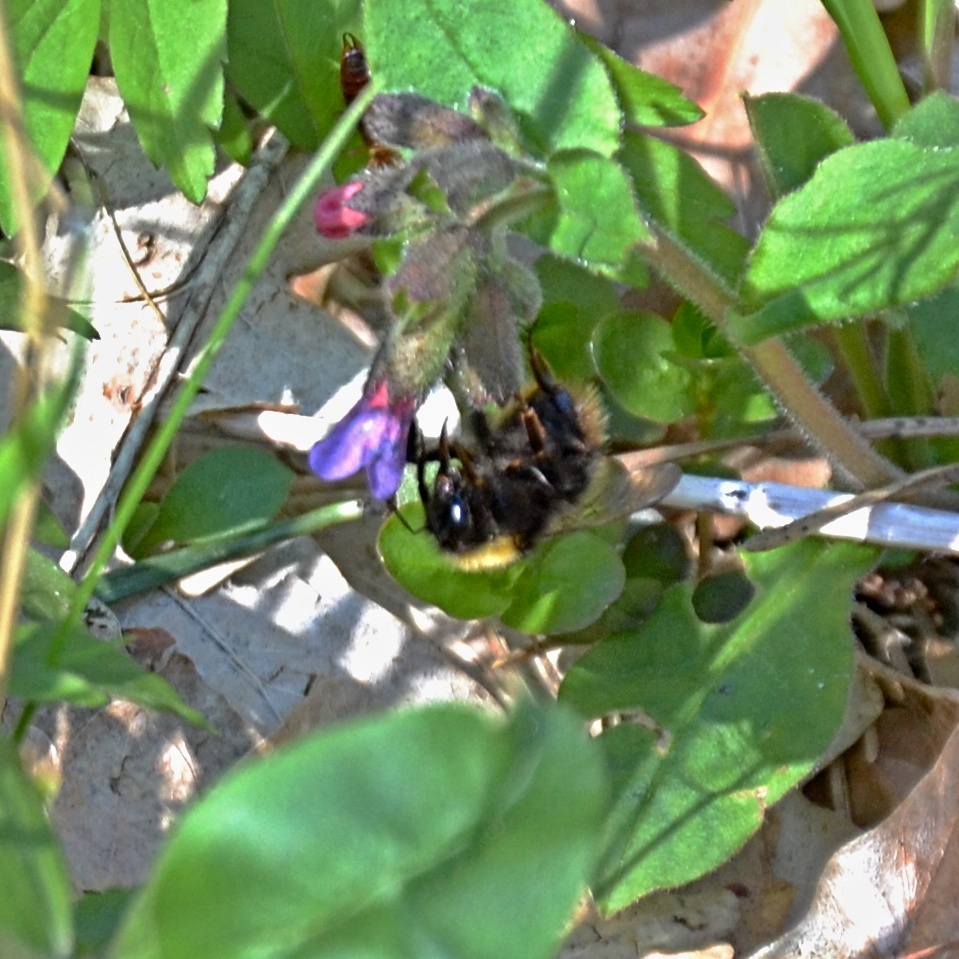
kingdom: Animalia
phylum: Arthropoda
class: Insecta
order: Hymenoptera
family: Apidae
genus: Bombus
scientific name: Bombus pratorum
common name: Early humble-bee
